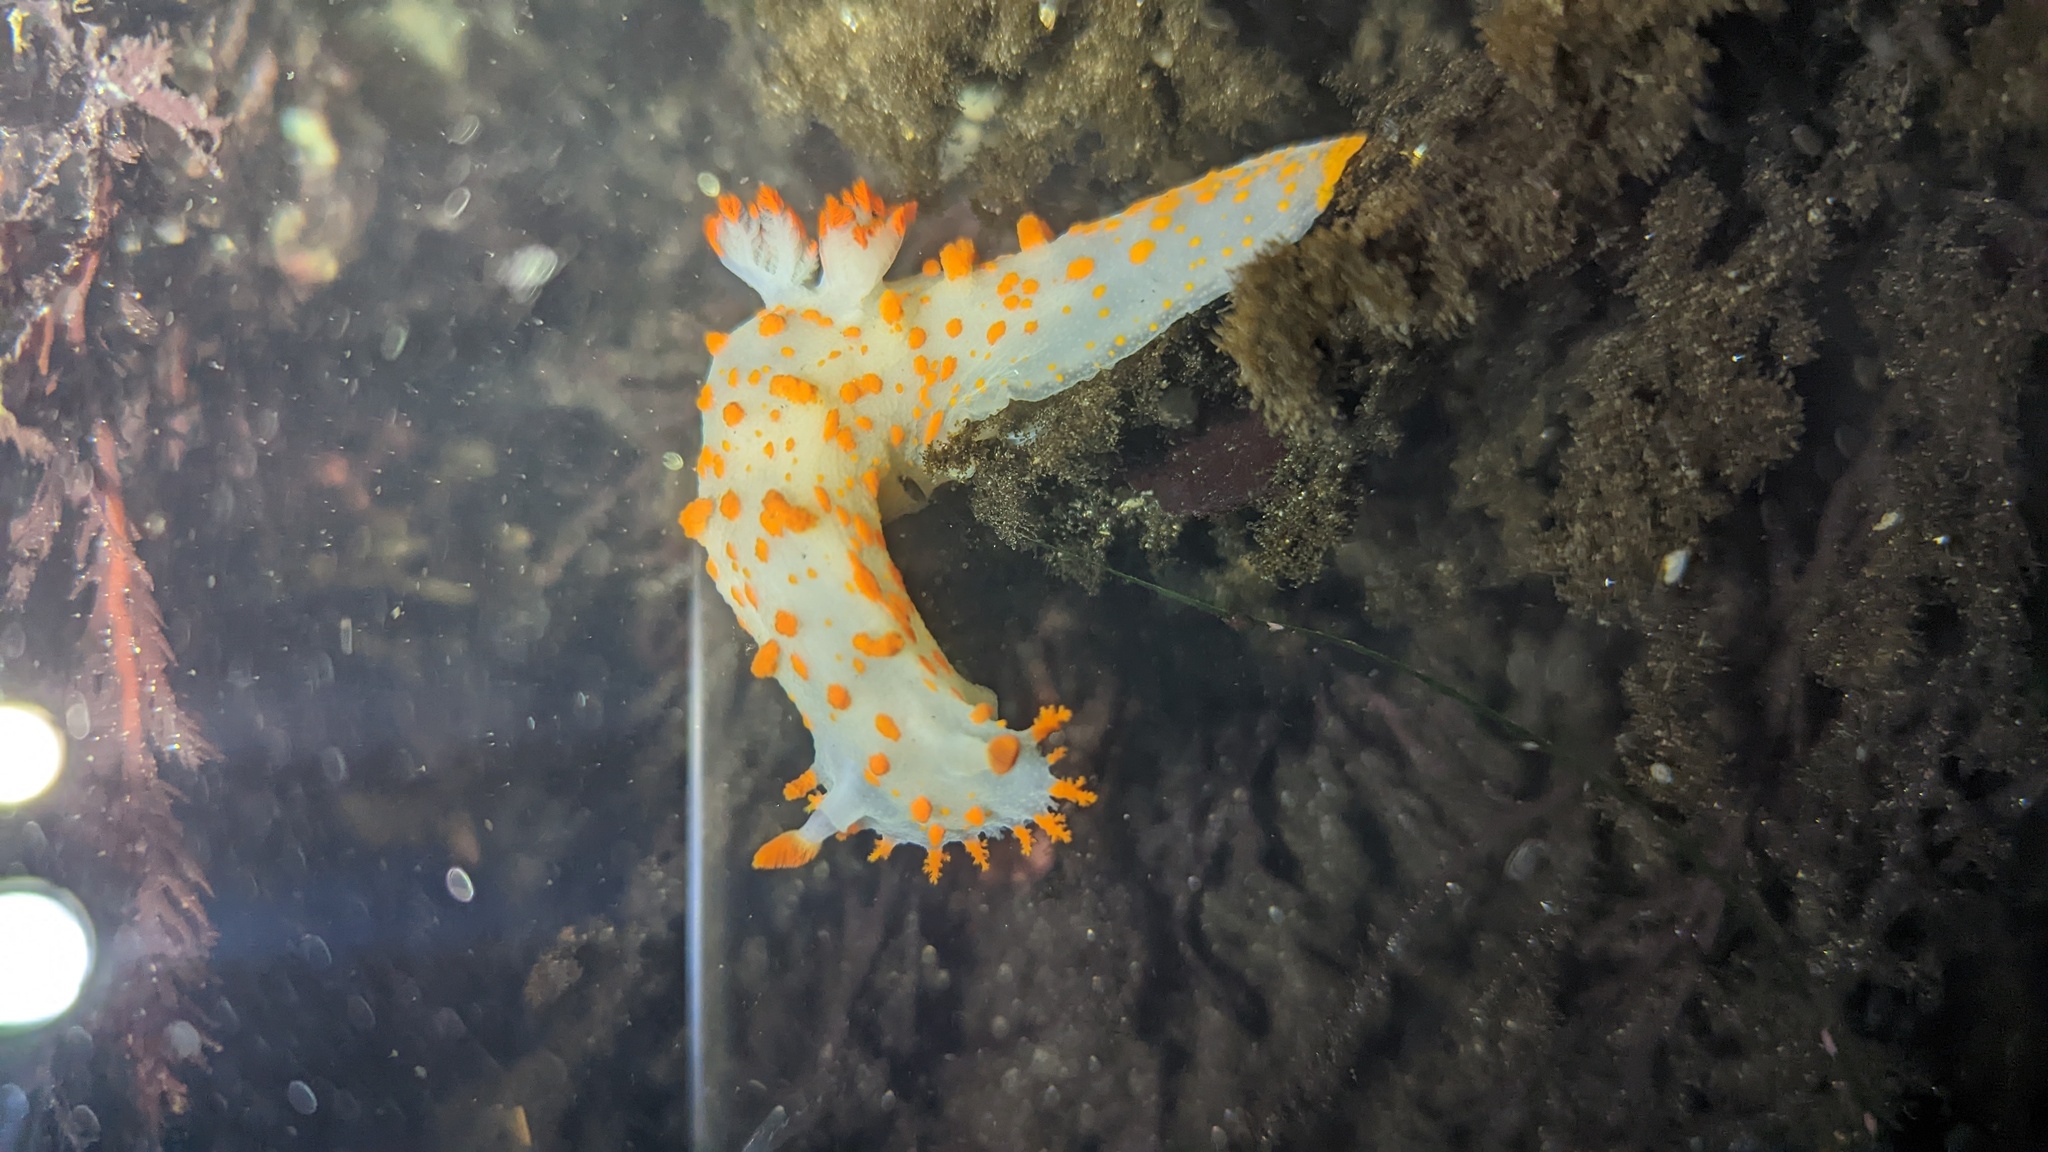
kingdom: Animalia
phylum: Mollusca
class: Gastropoda
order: Nudibranchia
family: Polyceridae
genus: Triopha
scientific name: Triopha catalinae
